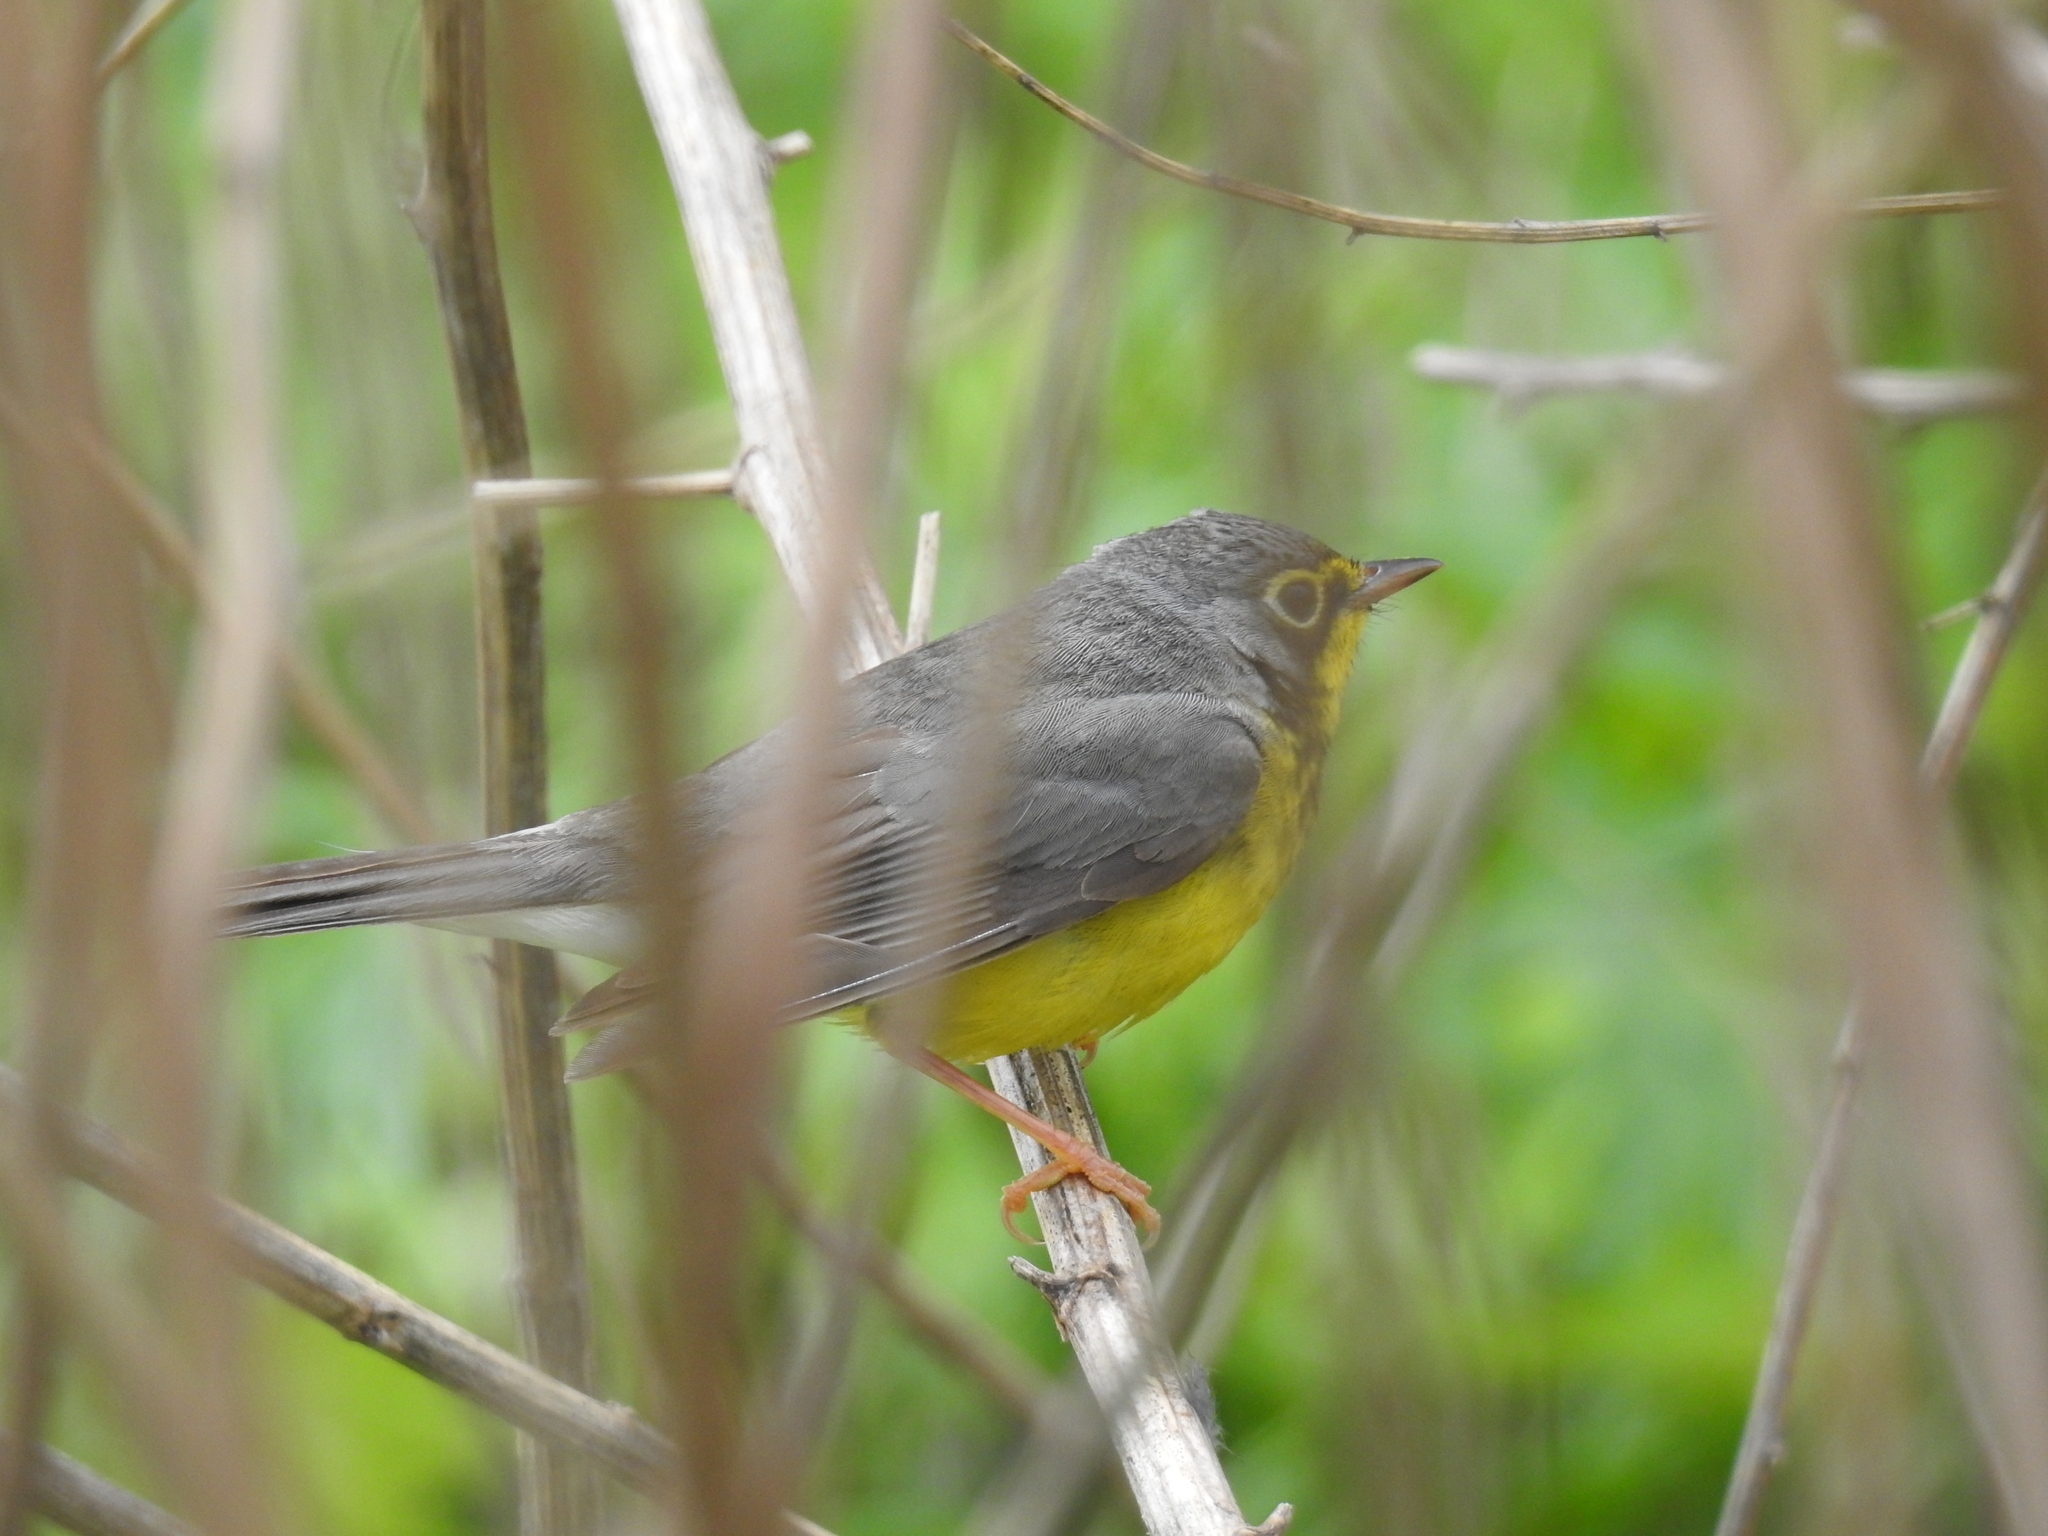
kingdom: Animalia
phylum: Chordata
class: Aves
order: Passeriformes
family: Parulidae
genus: Cardellina
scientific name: Cardellina canadensis
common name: Canada warbler
